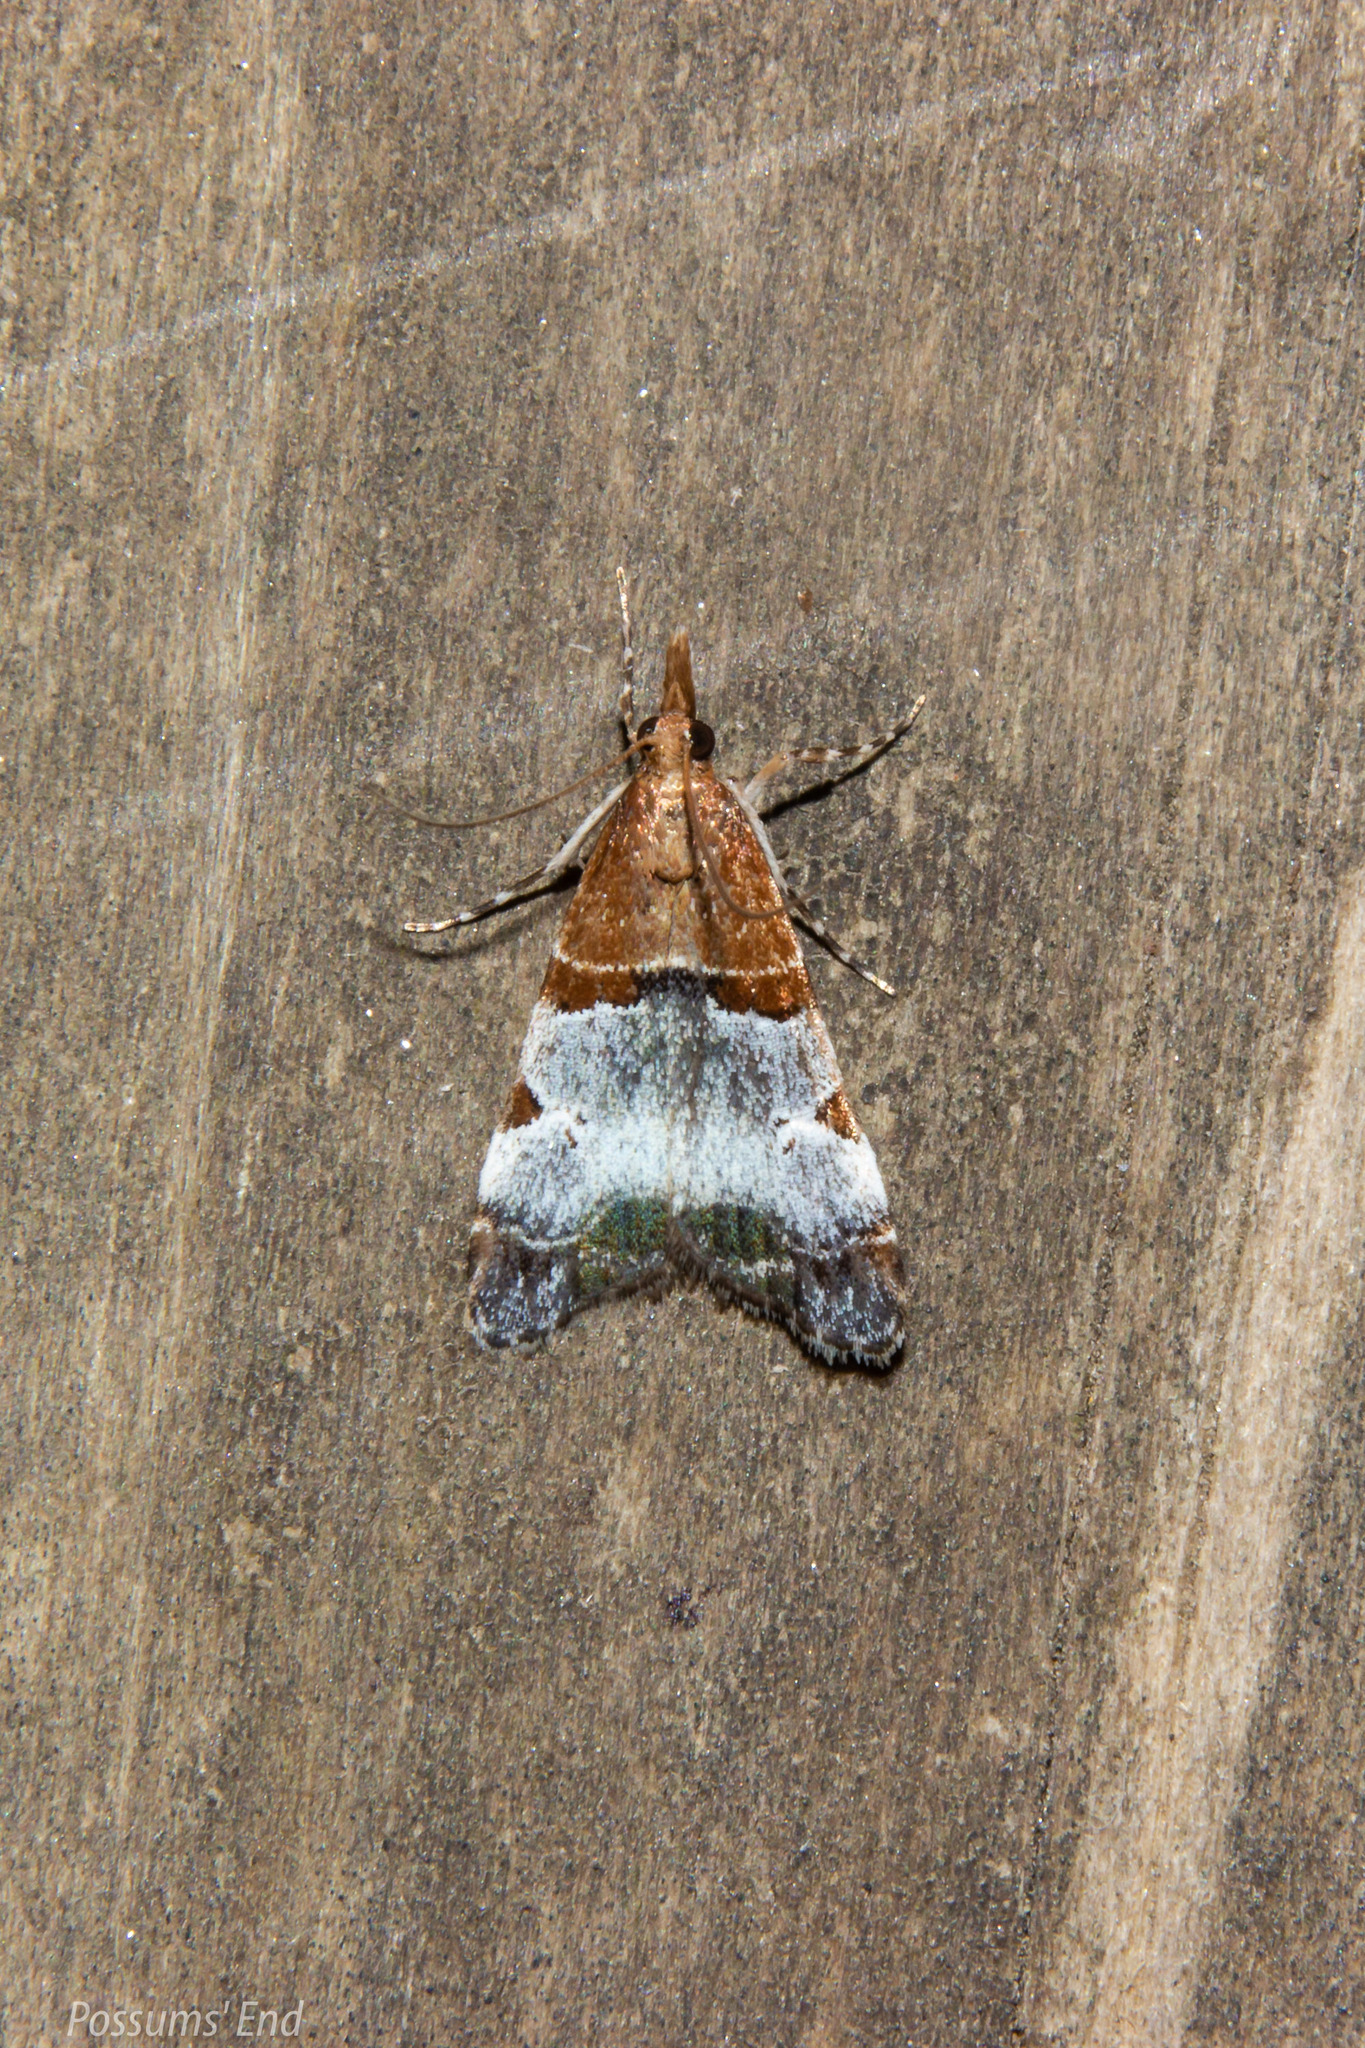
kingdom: Animalia
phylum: Arthropoda
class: Insecta
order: Lepidoptera
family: Crambidae
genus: Antiscopa
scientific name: Antiscopa epicomia
